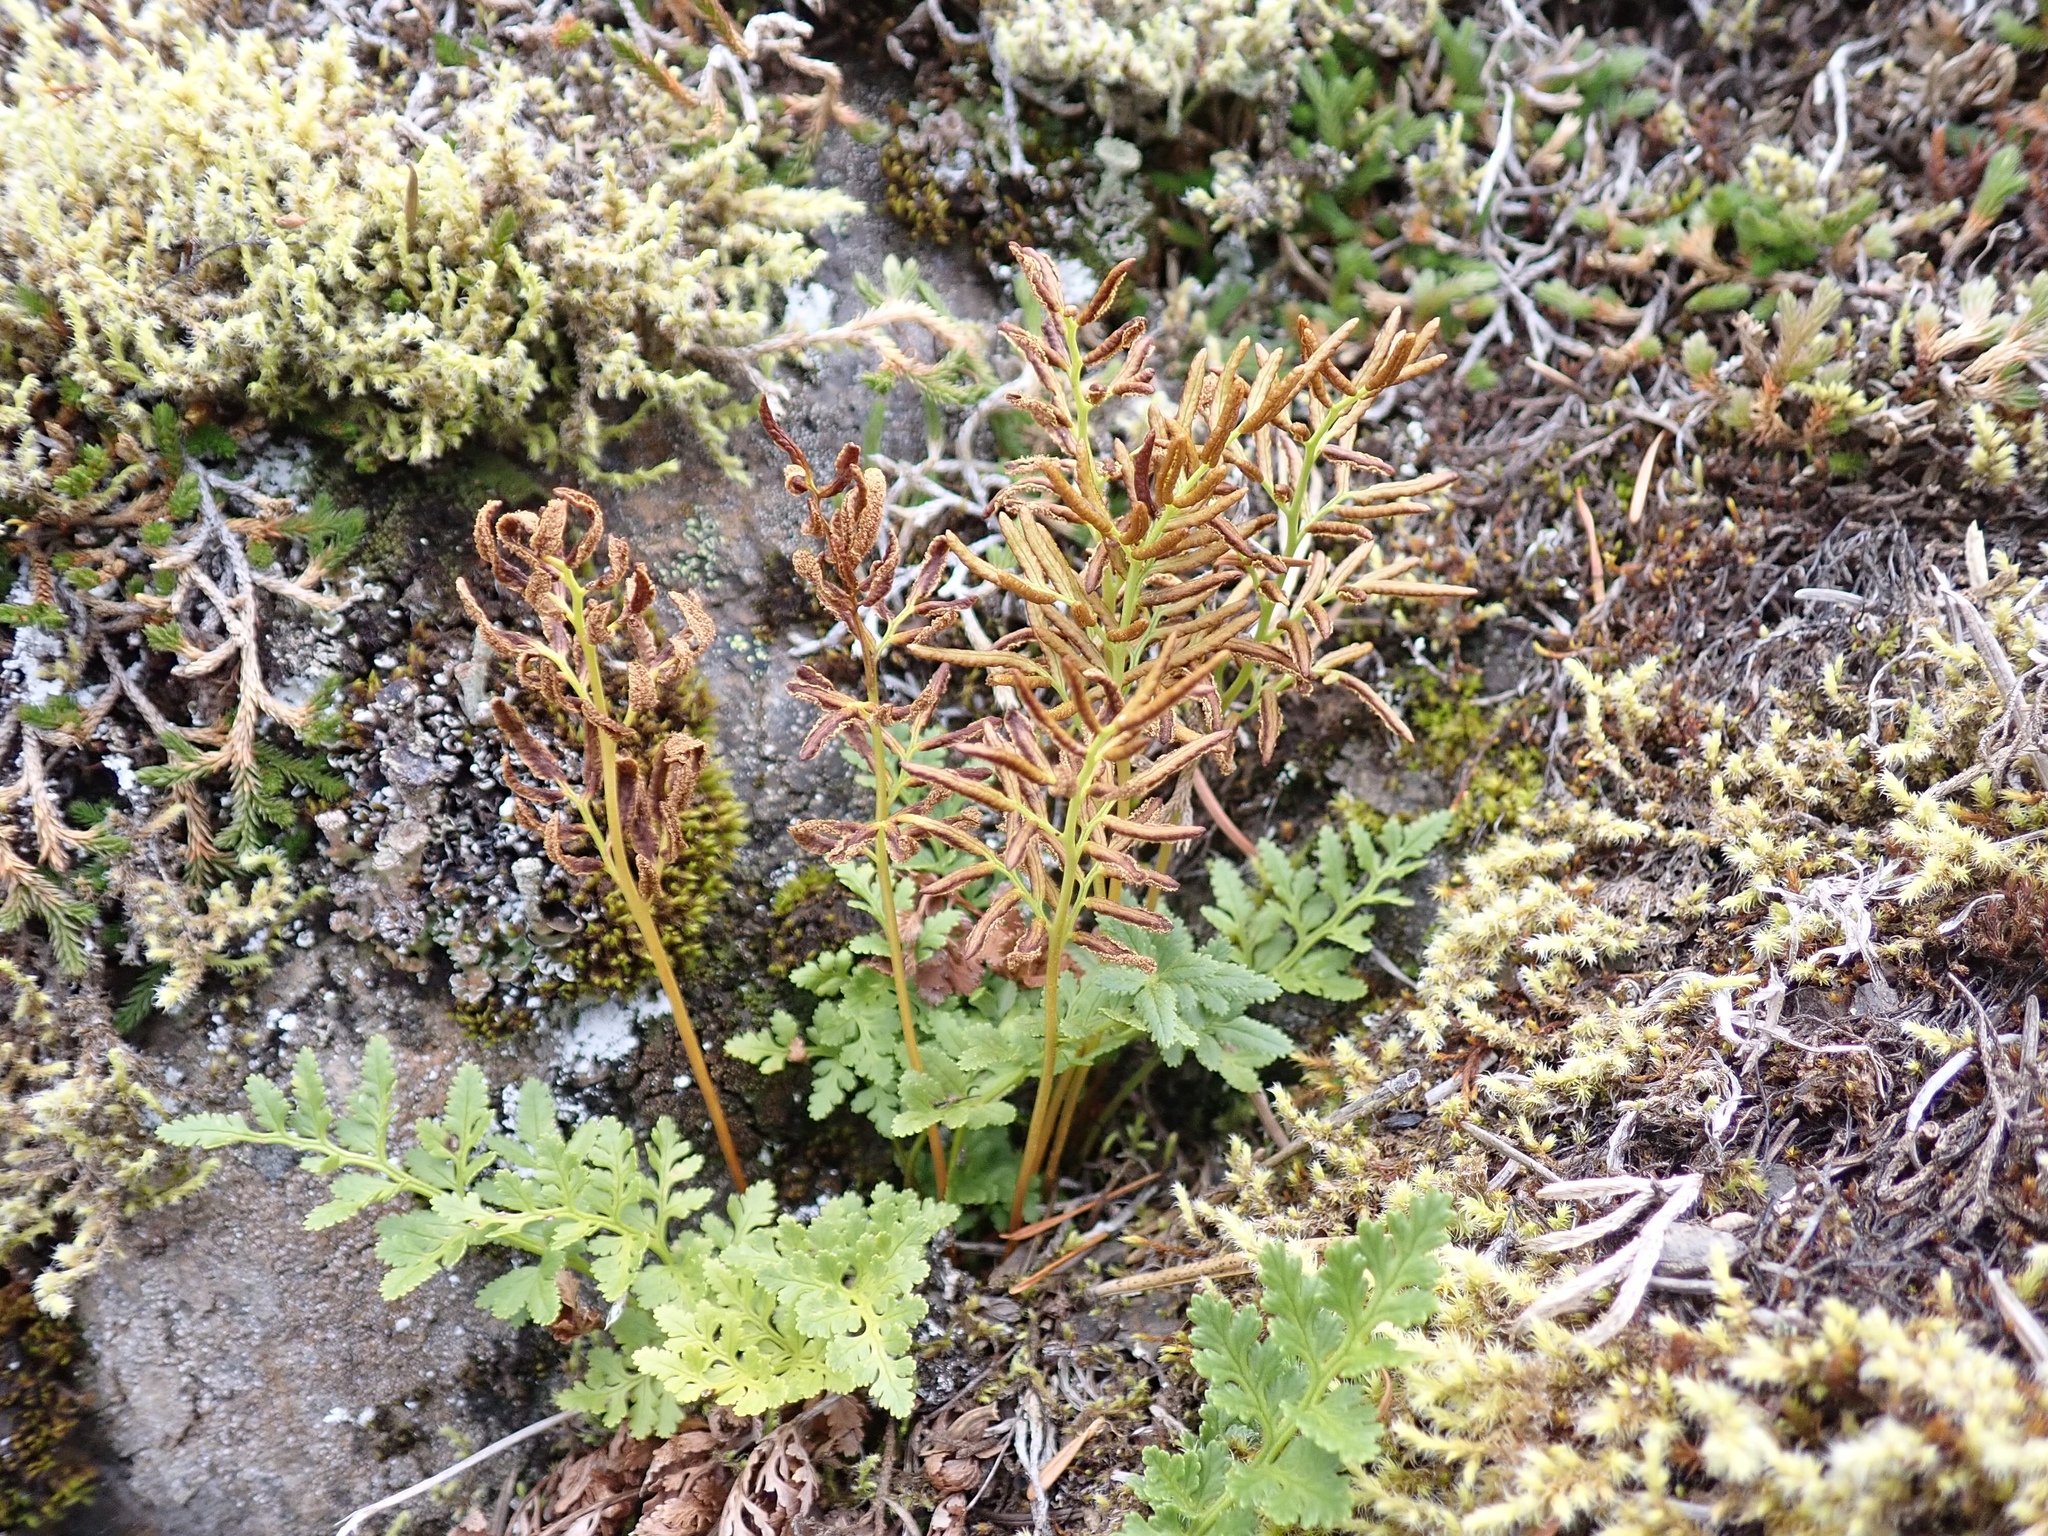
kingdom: Plantae
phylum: Tracheophyta
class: Polypodiopsida
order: Polypodiales
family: Pteridaceae
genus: Cryptogramma
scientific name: Cryptogramma acrostichoides
